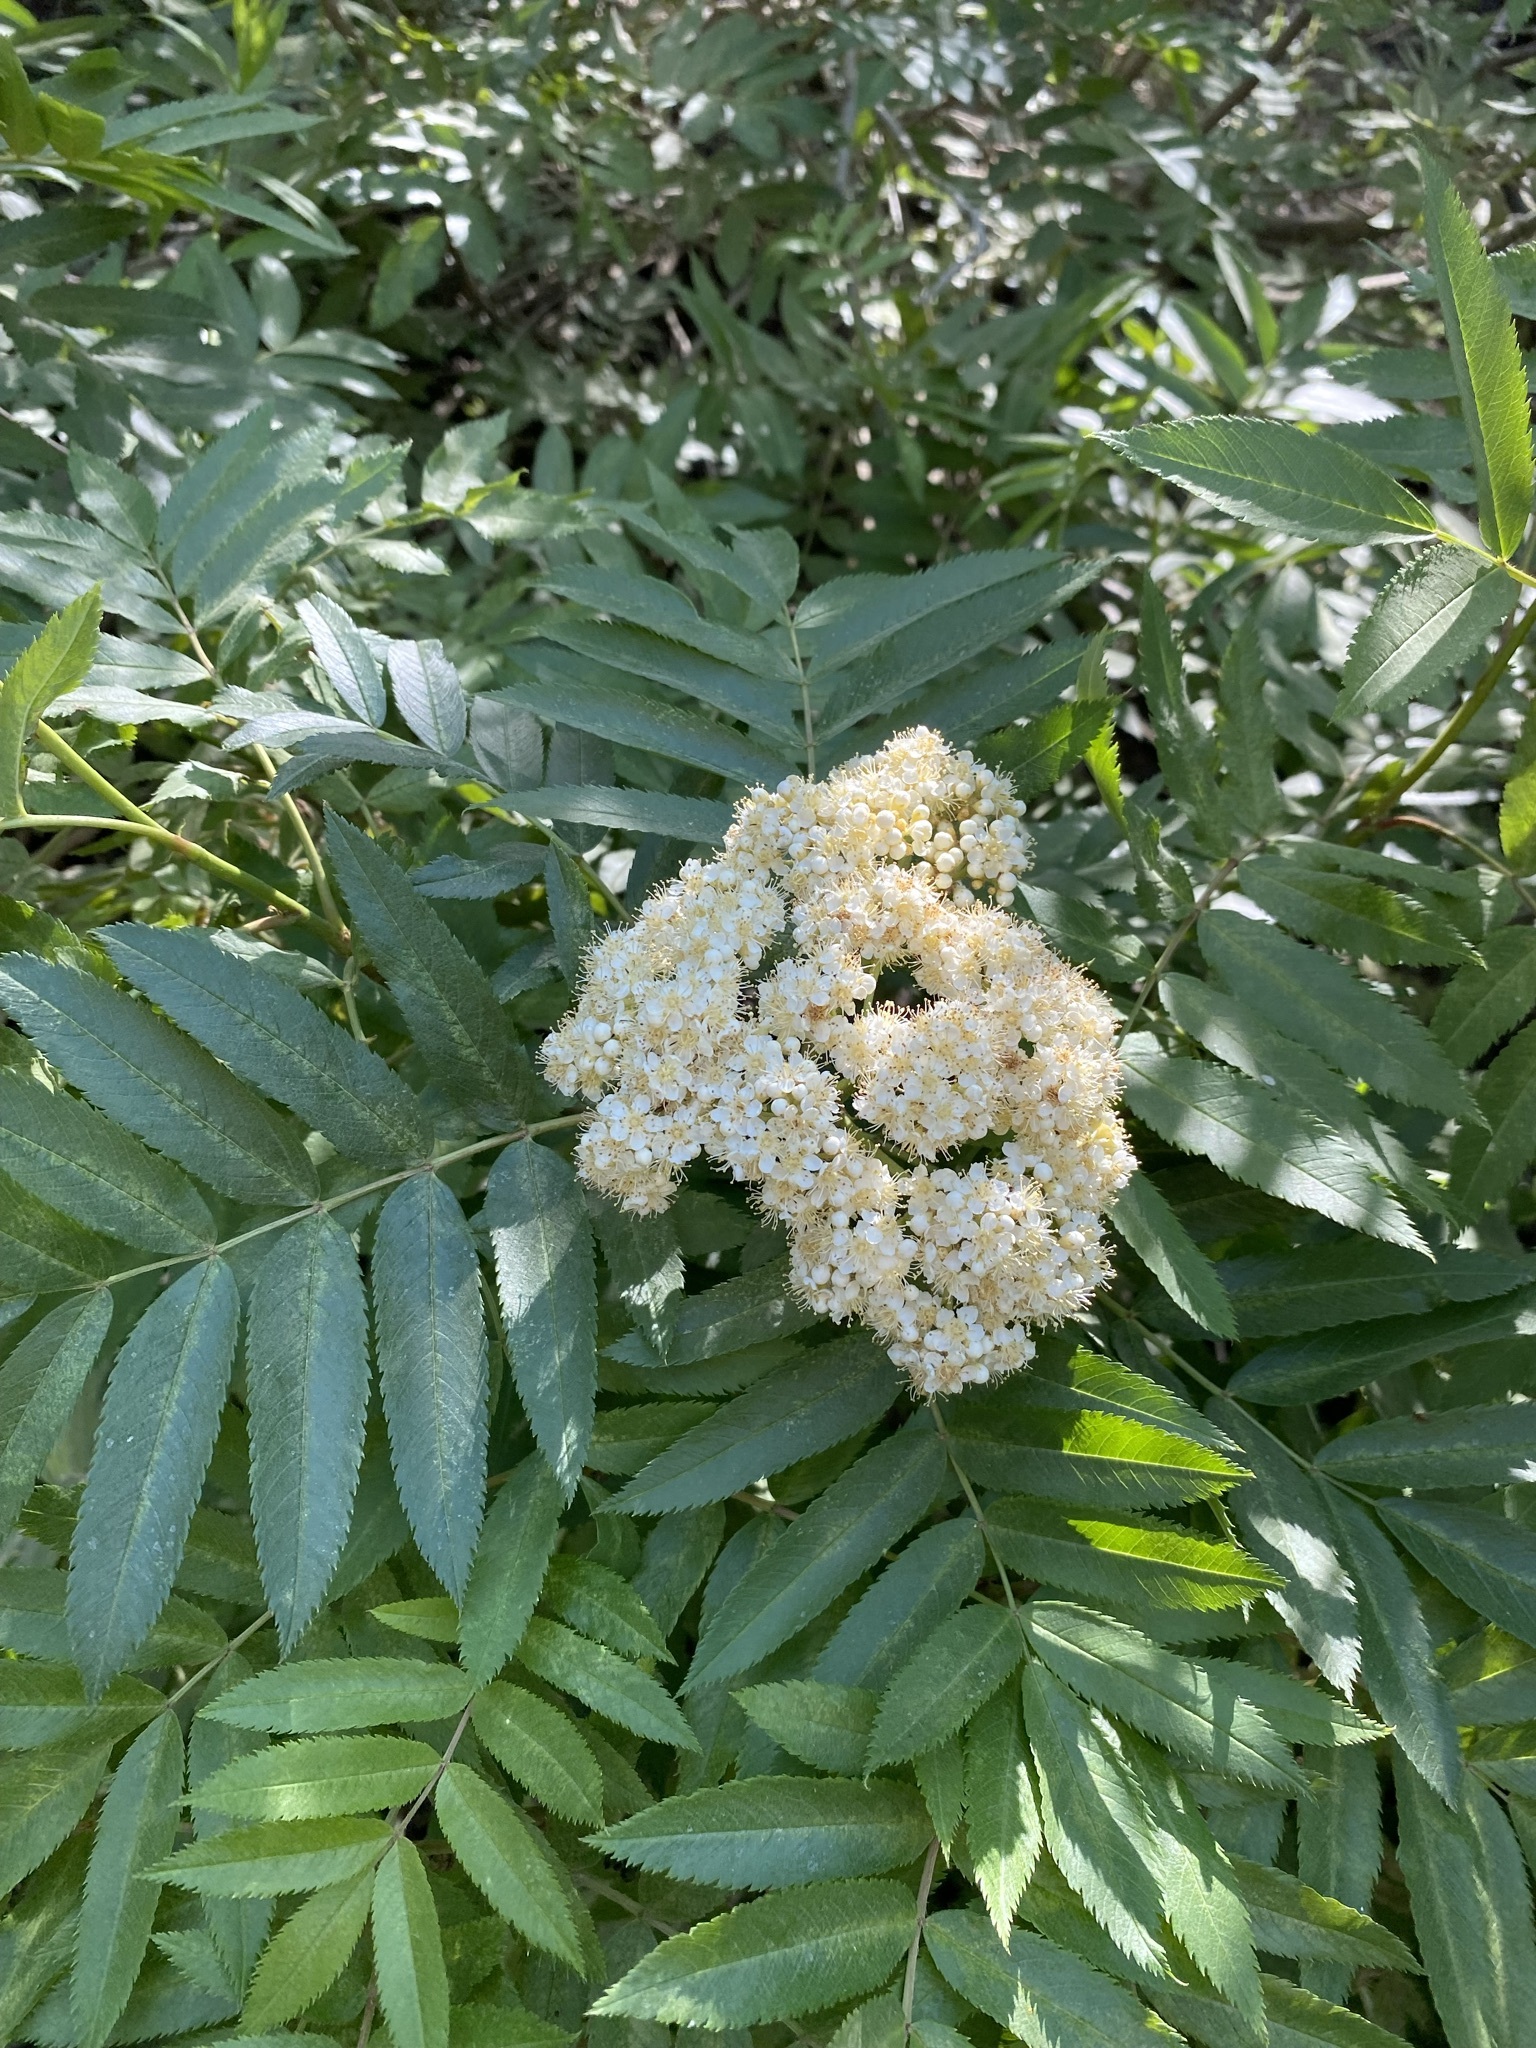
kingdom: Plantae
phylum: Tracheophyta
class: Magnoliopsida
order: Rosales
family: Rosaceae
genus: Sorbus
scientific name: Sorbus scopulina
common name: Greene's mountain-ash
